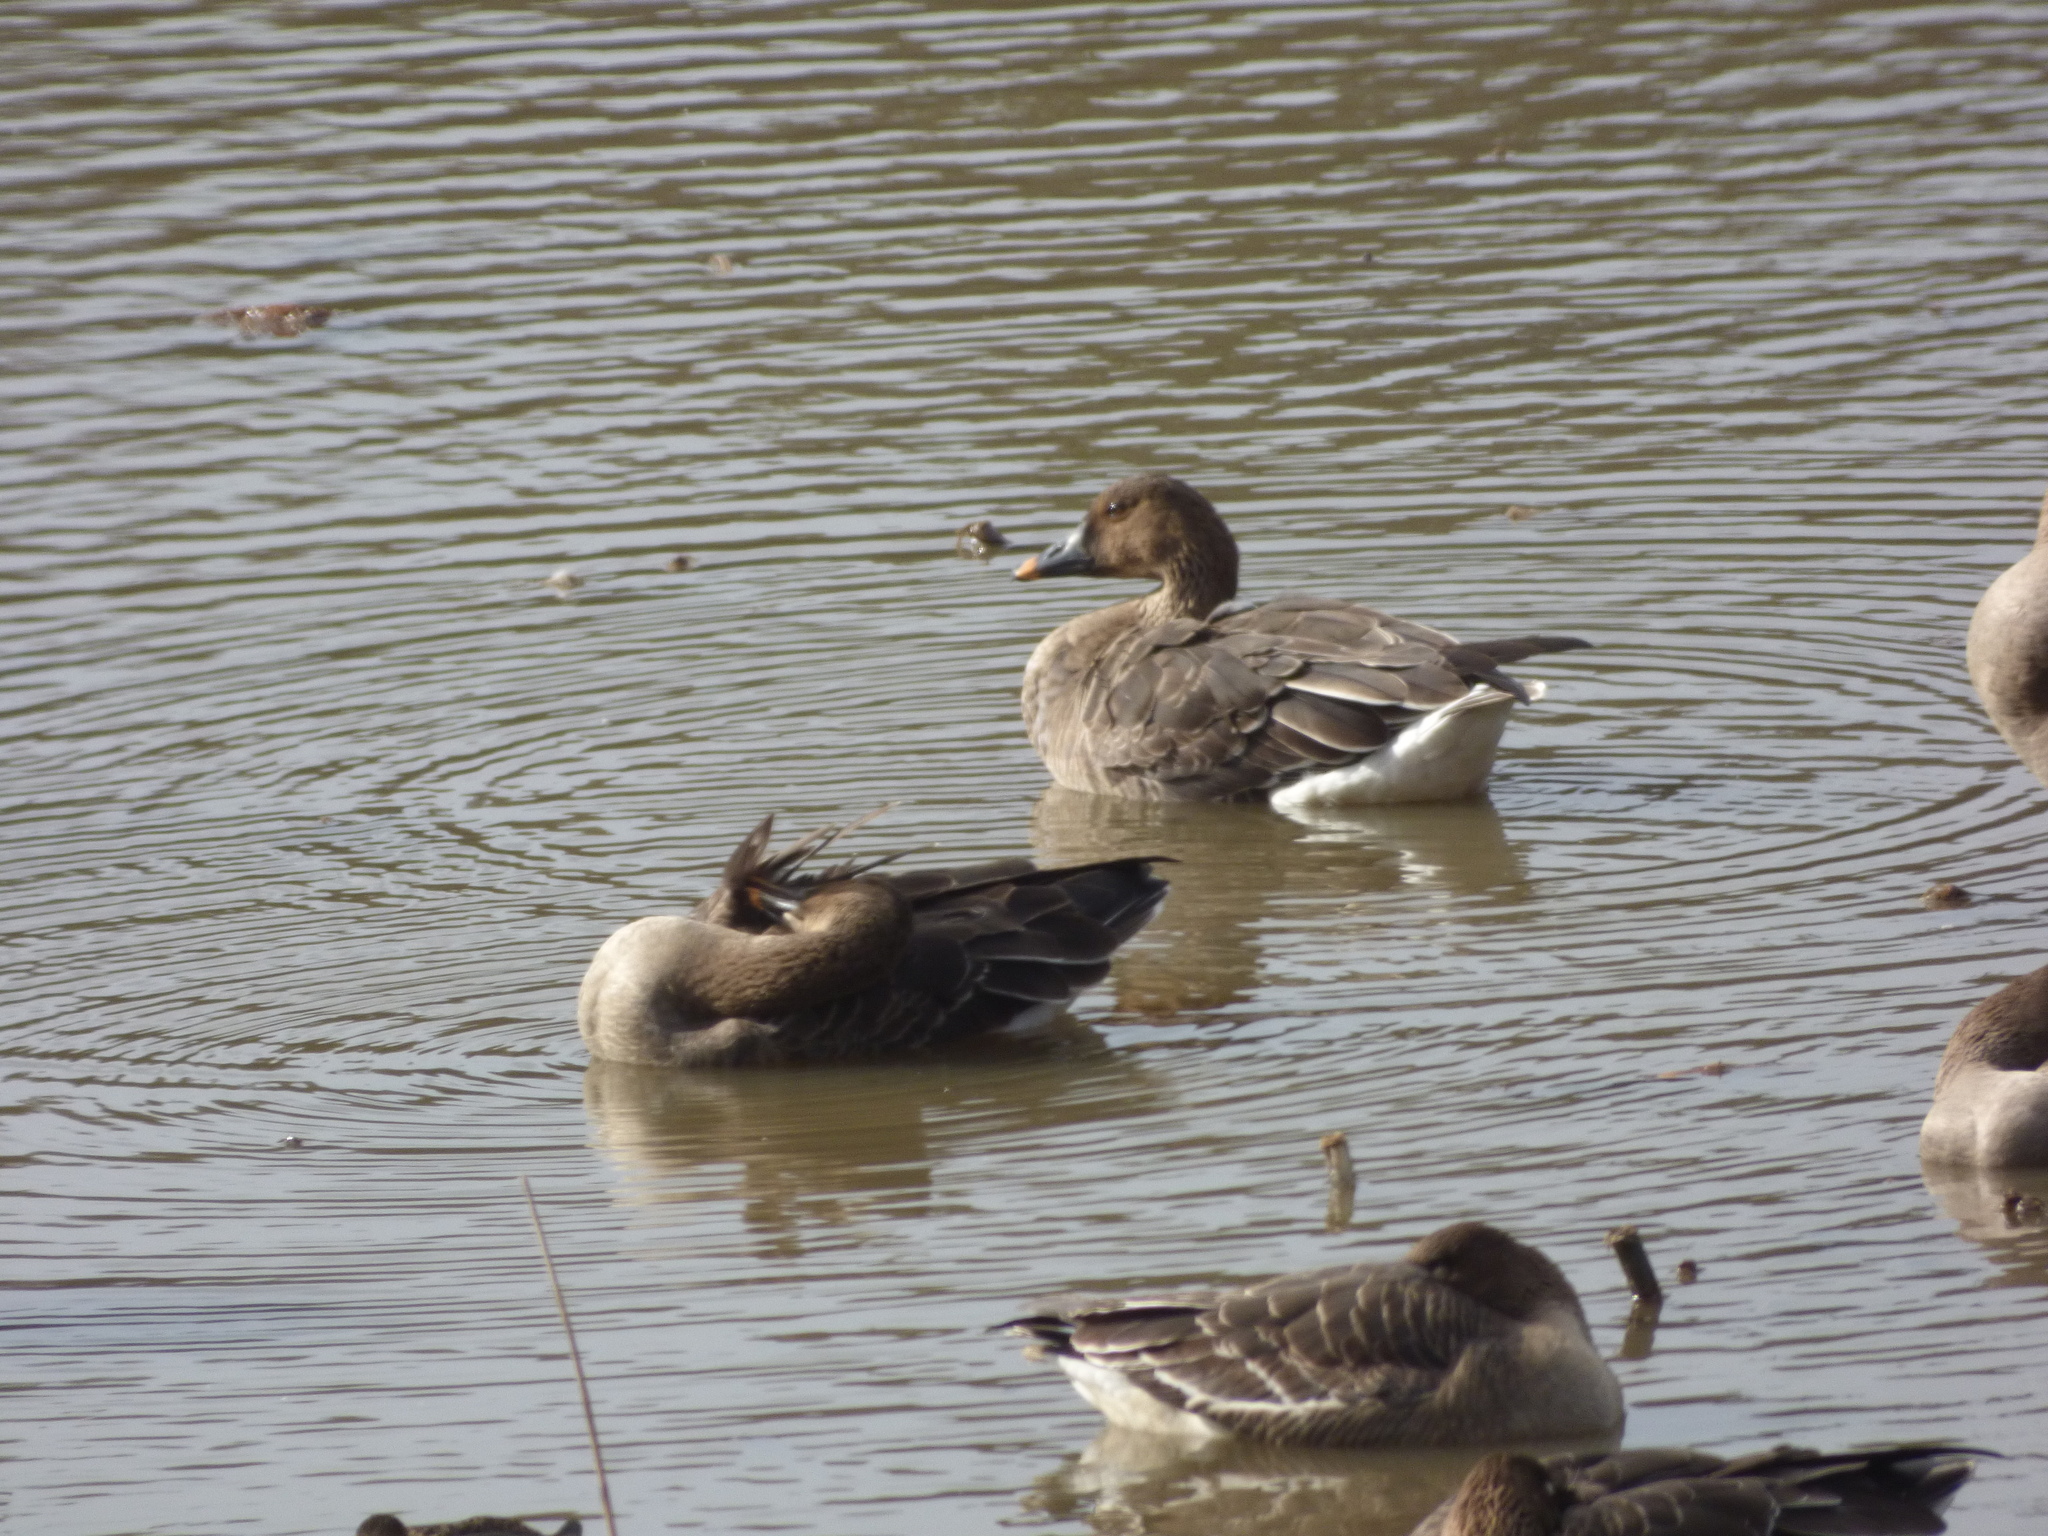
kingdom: Animalia
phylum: Chordata
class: Aves
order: Anseriformes
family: Anatidae
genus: Anser
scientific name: Anser fabalis
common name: Bean goose
